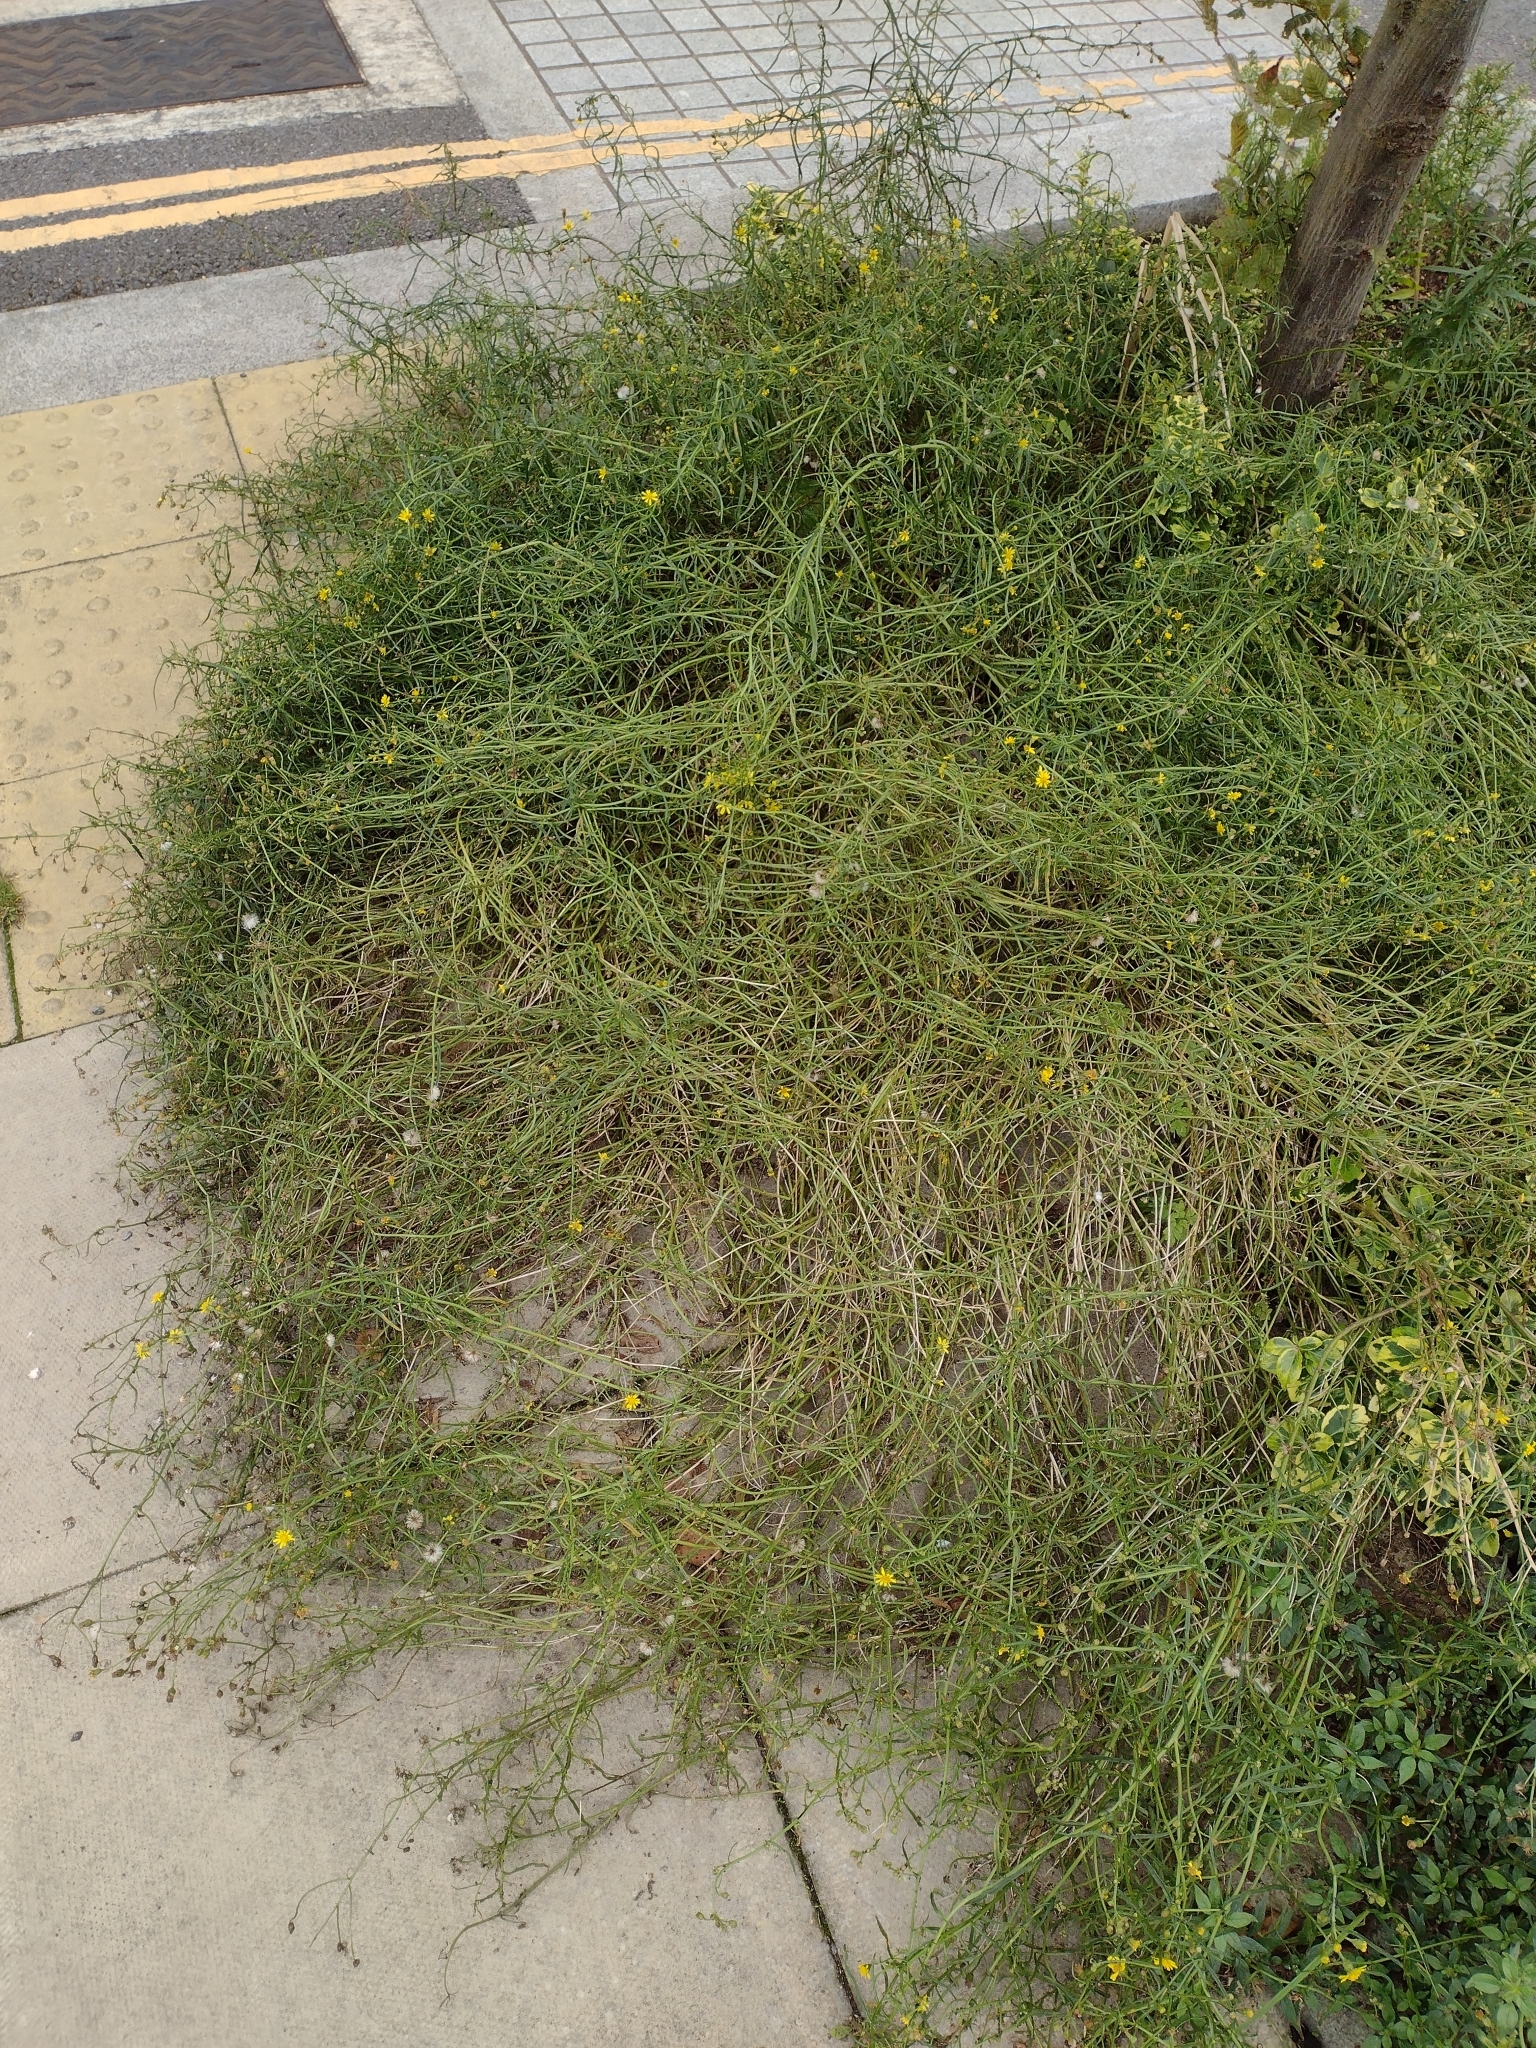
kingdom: Plantae
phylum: Tracheophyta
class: Magnoliopsida
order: Asterales
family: Asteraceae
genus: Senecio
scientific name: Senecio inaequidens
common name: Narrow-leaved ragwort
